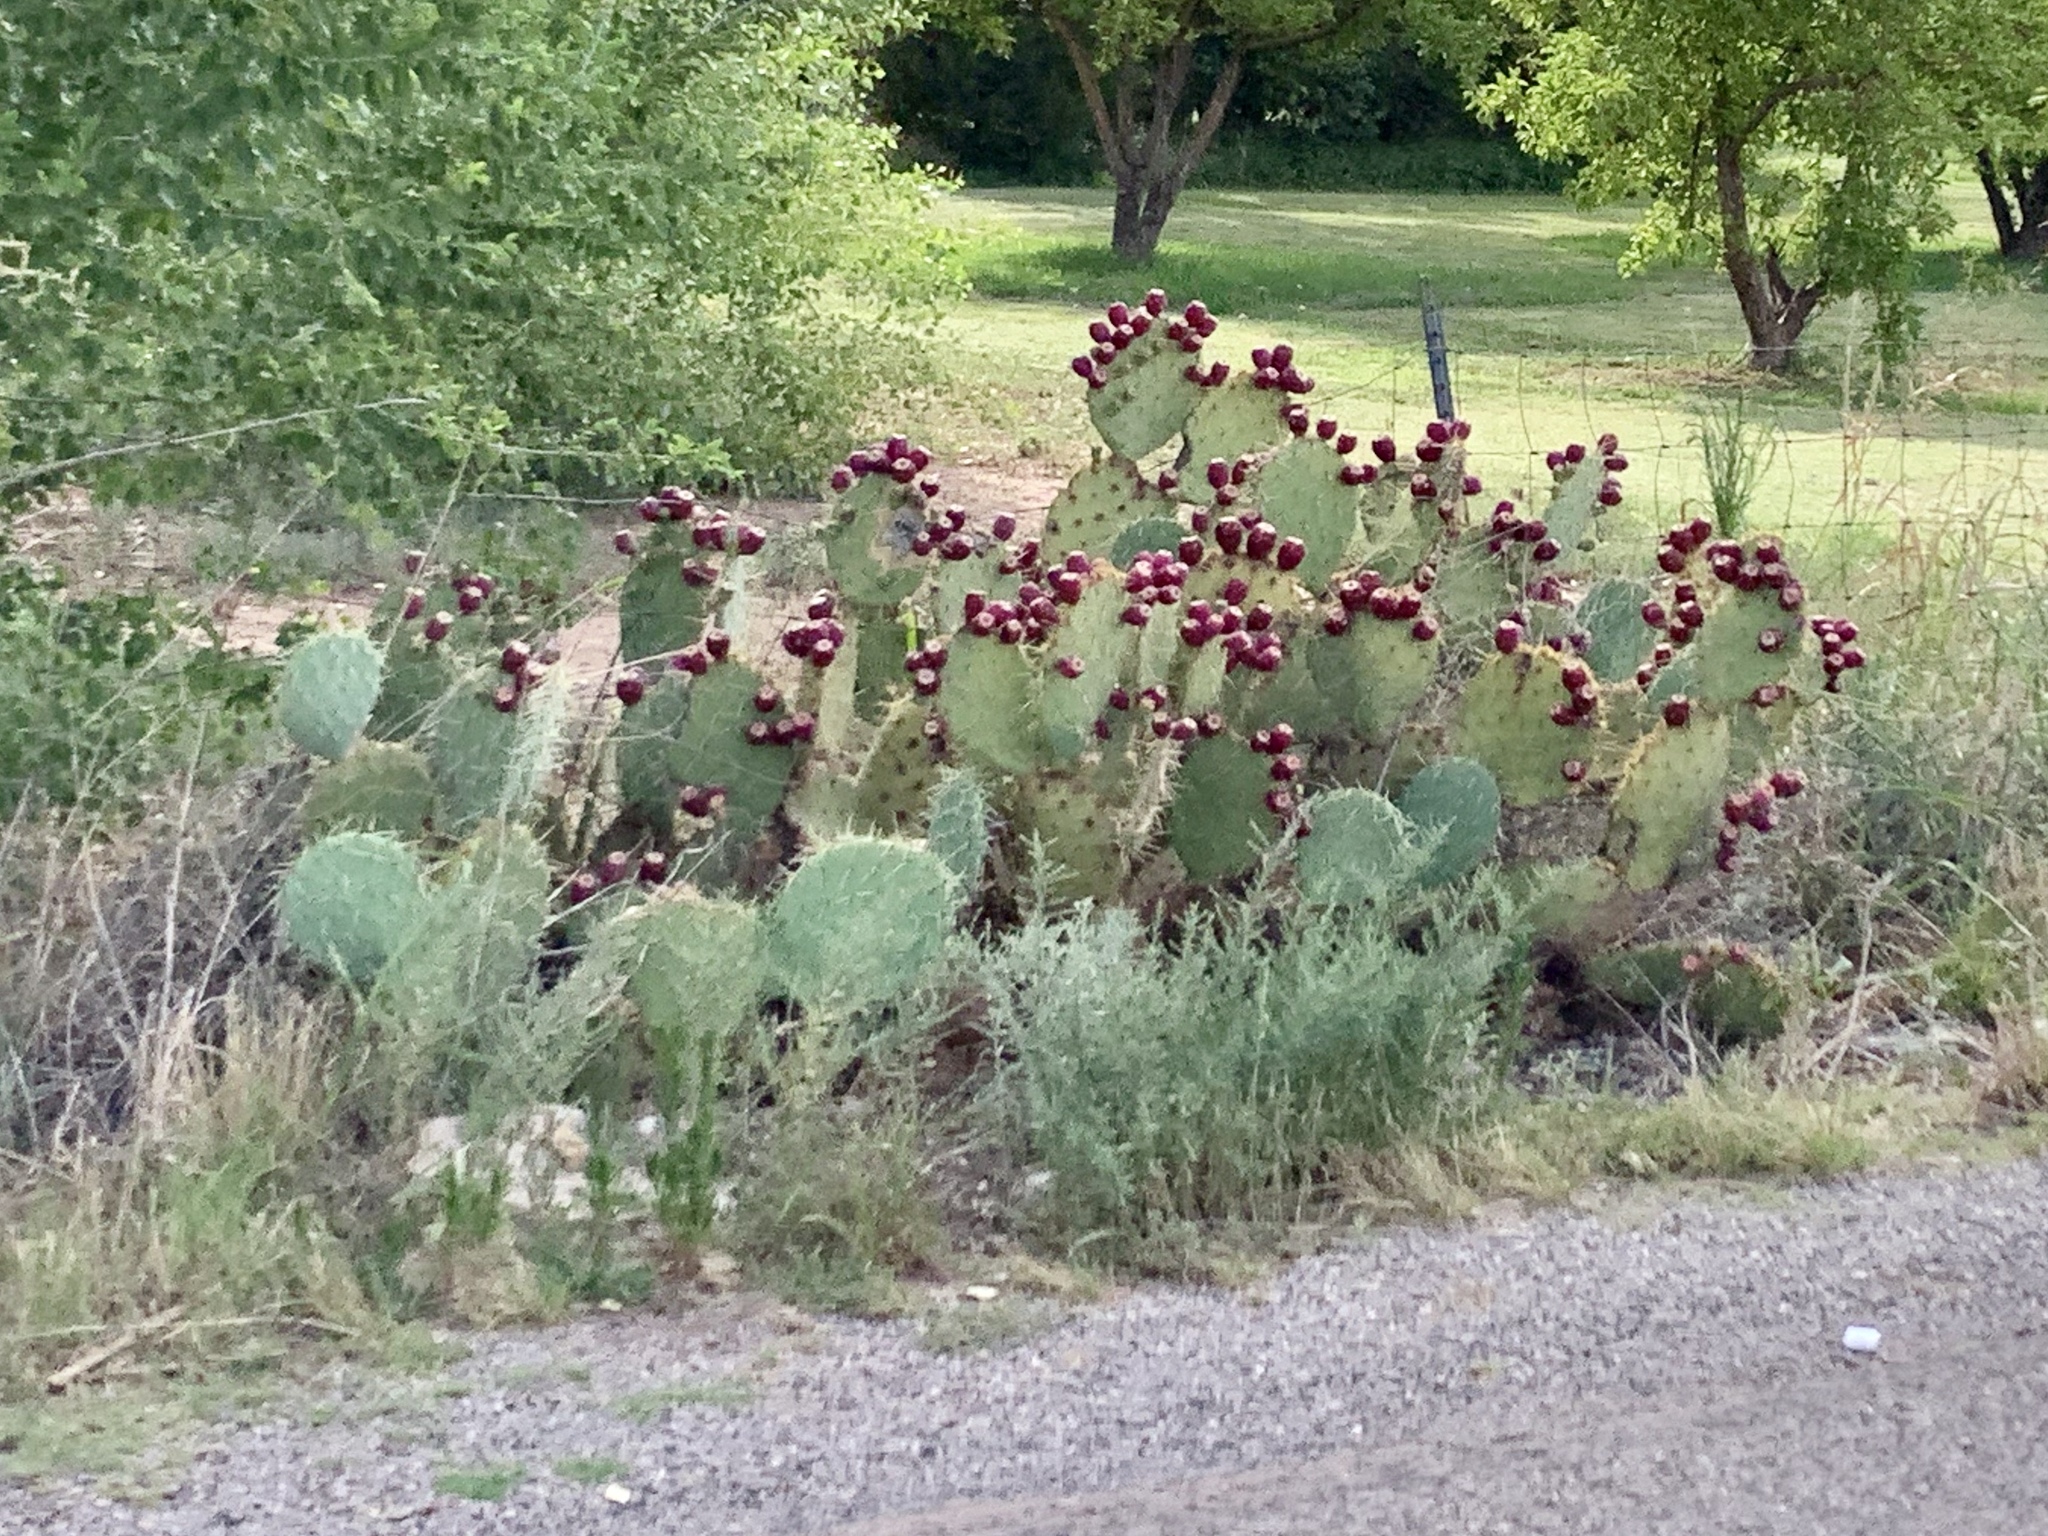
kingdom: Plantae
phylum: Tracheophyta
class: Magnoliopsida
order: Caryophyllales
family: Cactaceae
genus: Opuntia
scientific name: Opuntia engelmannii
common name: Cactus-apple
